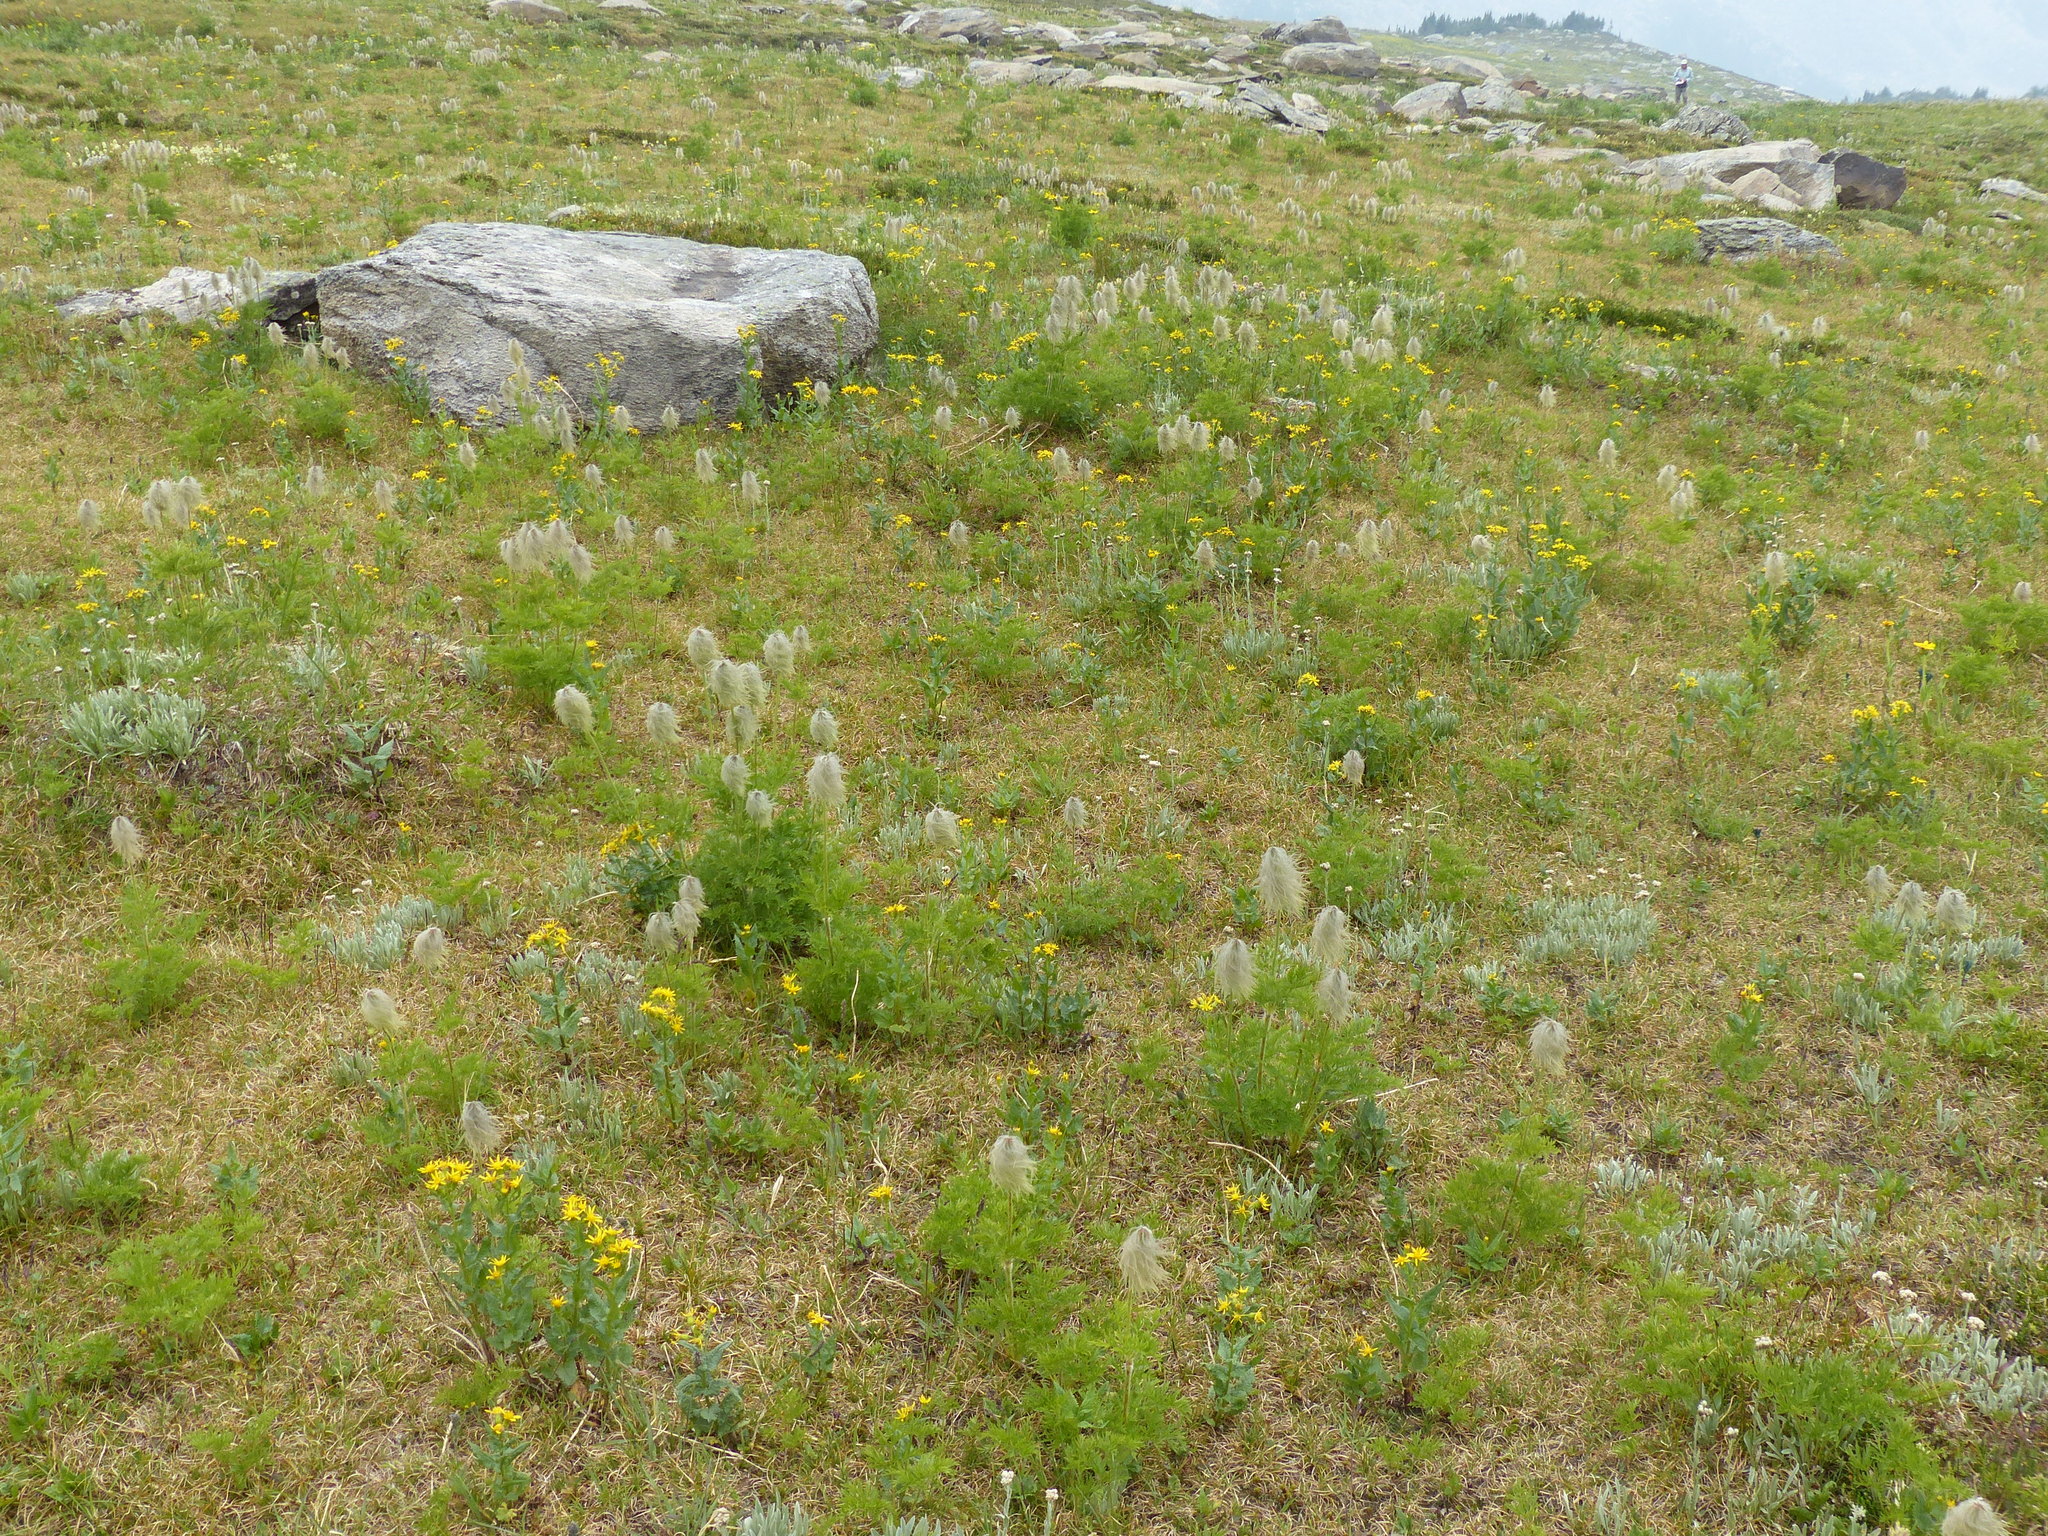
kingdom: Plantae
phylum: Tracheophyta
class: Magnoliopsida
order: Ranunculales
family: Ranunculaceae
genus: Pulsatilla
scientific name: Pulsatilla occidentalis
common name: Mountain pasqueflower
